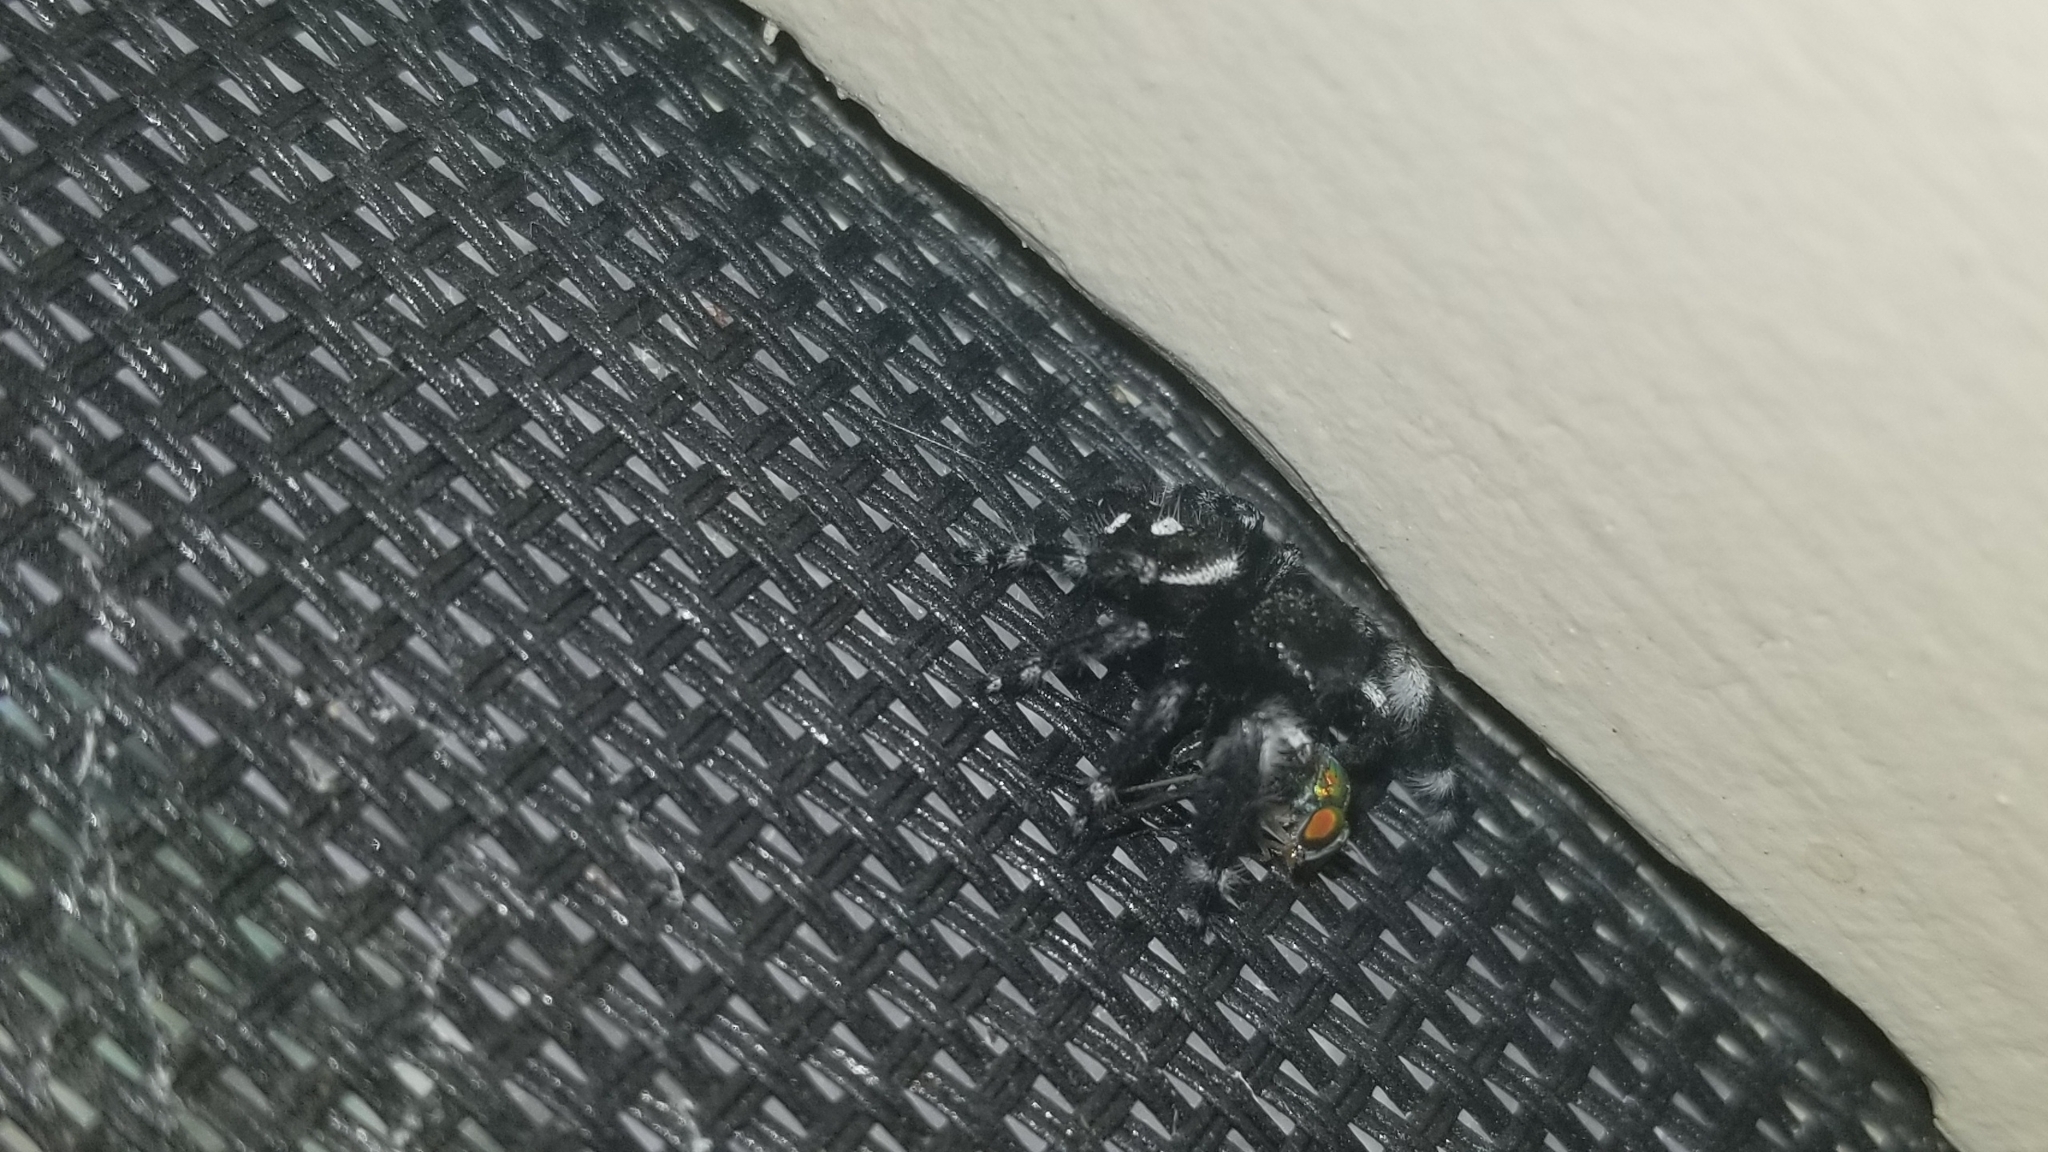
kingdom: Animalia
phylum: Arthropoda
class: Arachnida
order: Araneae
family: Salticidae
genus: Phidippus
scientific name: Phidippus audax
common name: Bold jumper
